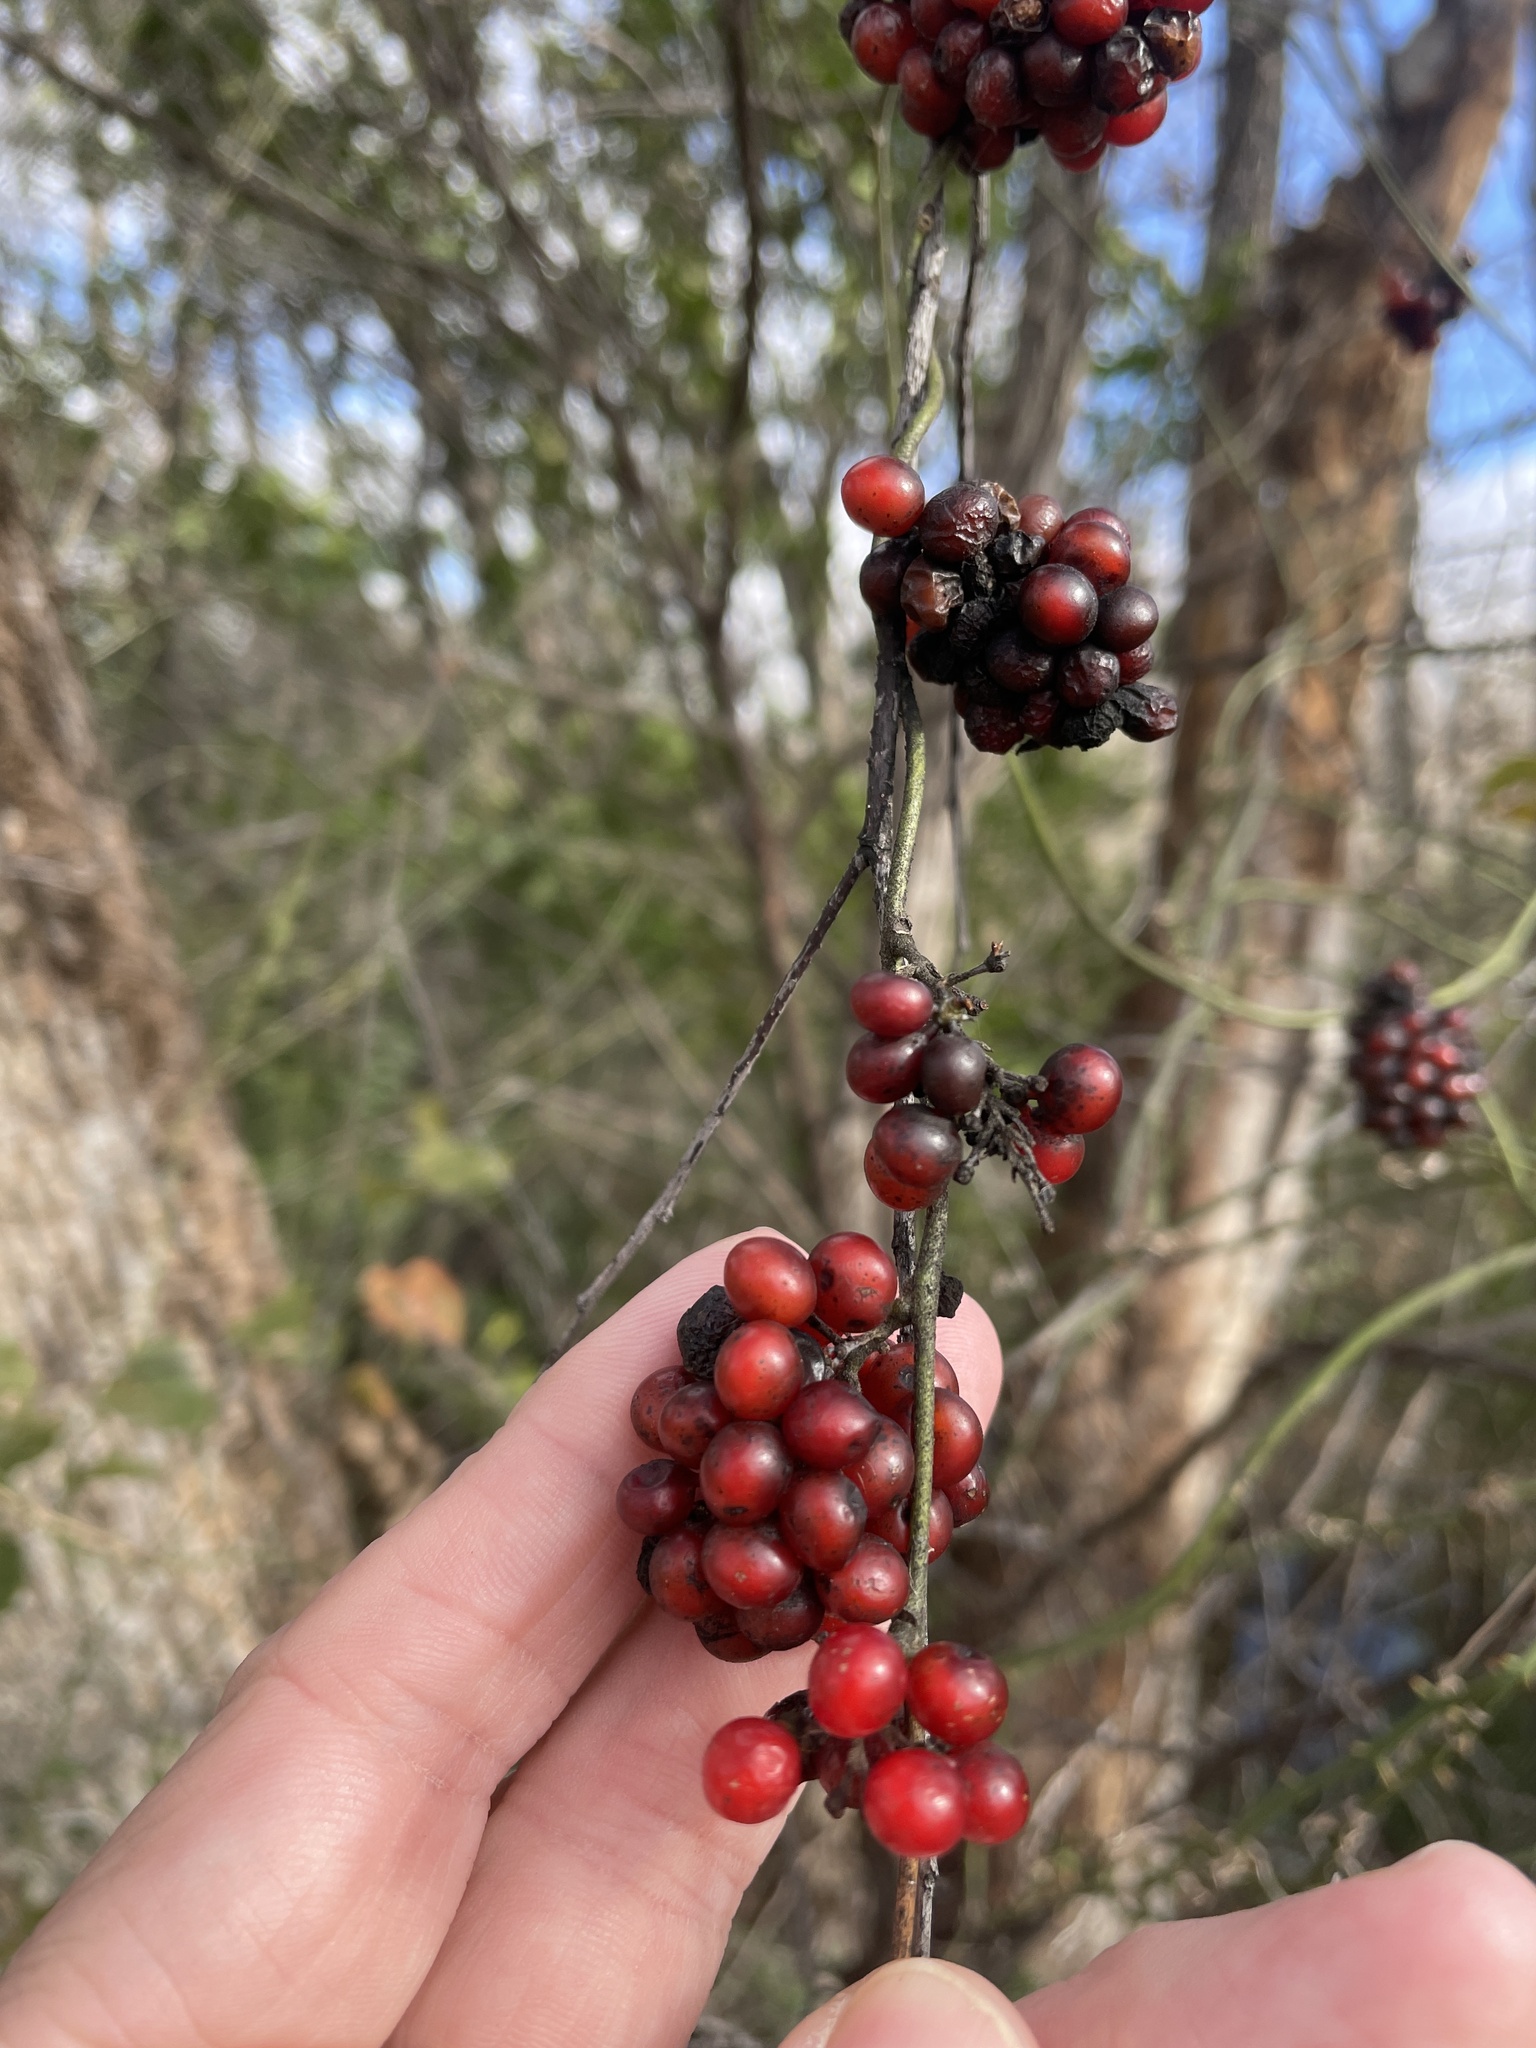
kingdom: Plantae
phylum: Tracheophyta
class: Magnoliopsida
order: Ranunculales
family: Menispermaceae
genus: Cocculus
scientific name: Cocculus carolinus
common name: Carolina moonseed
